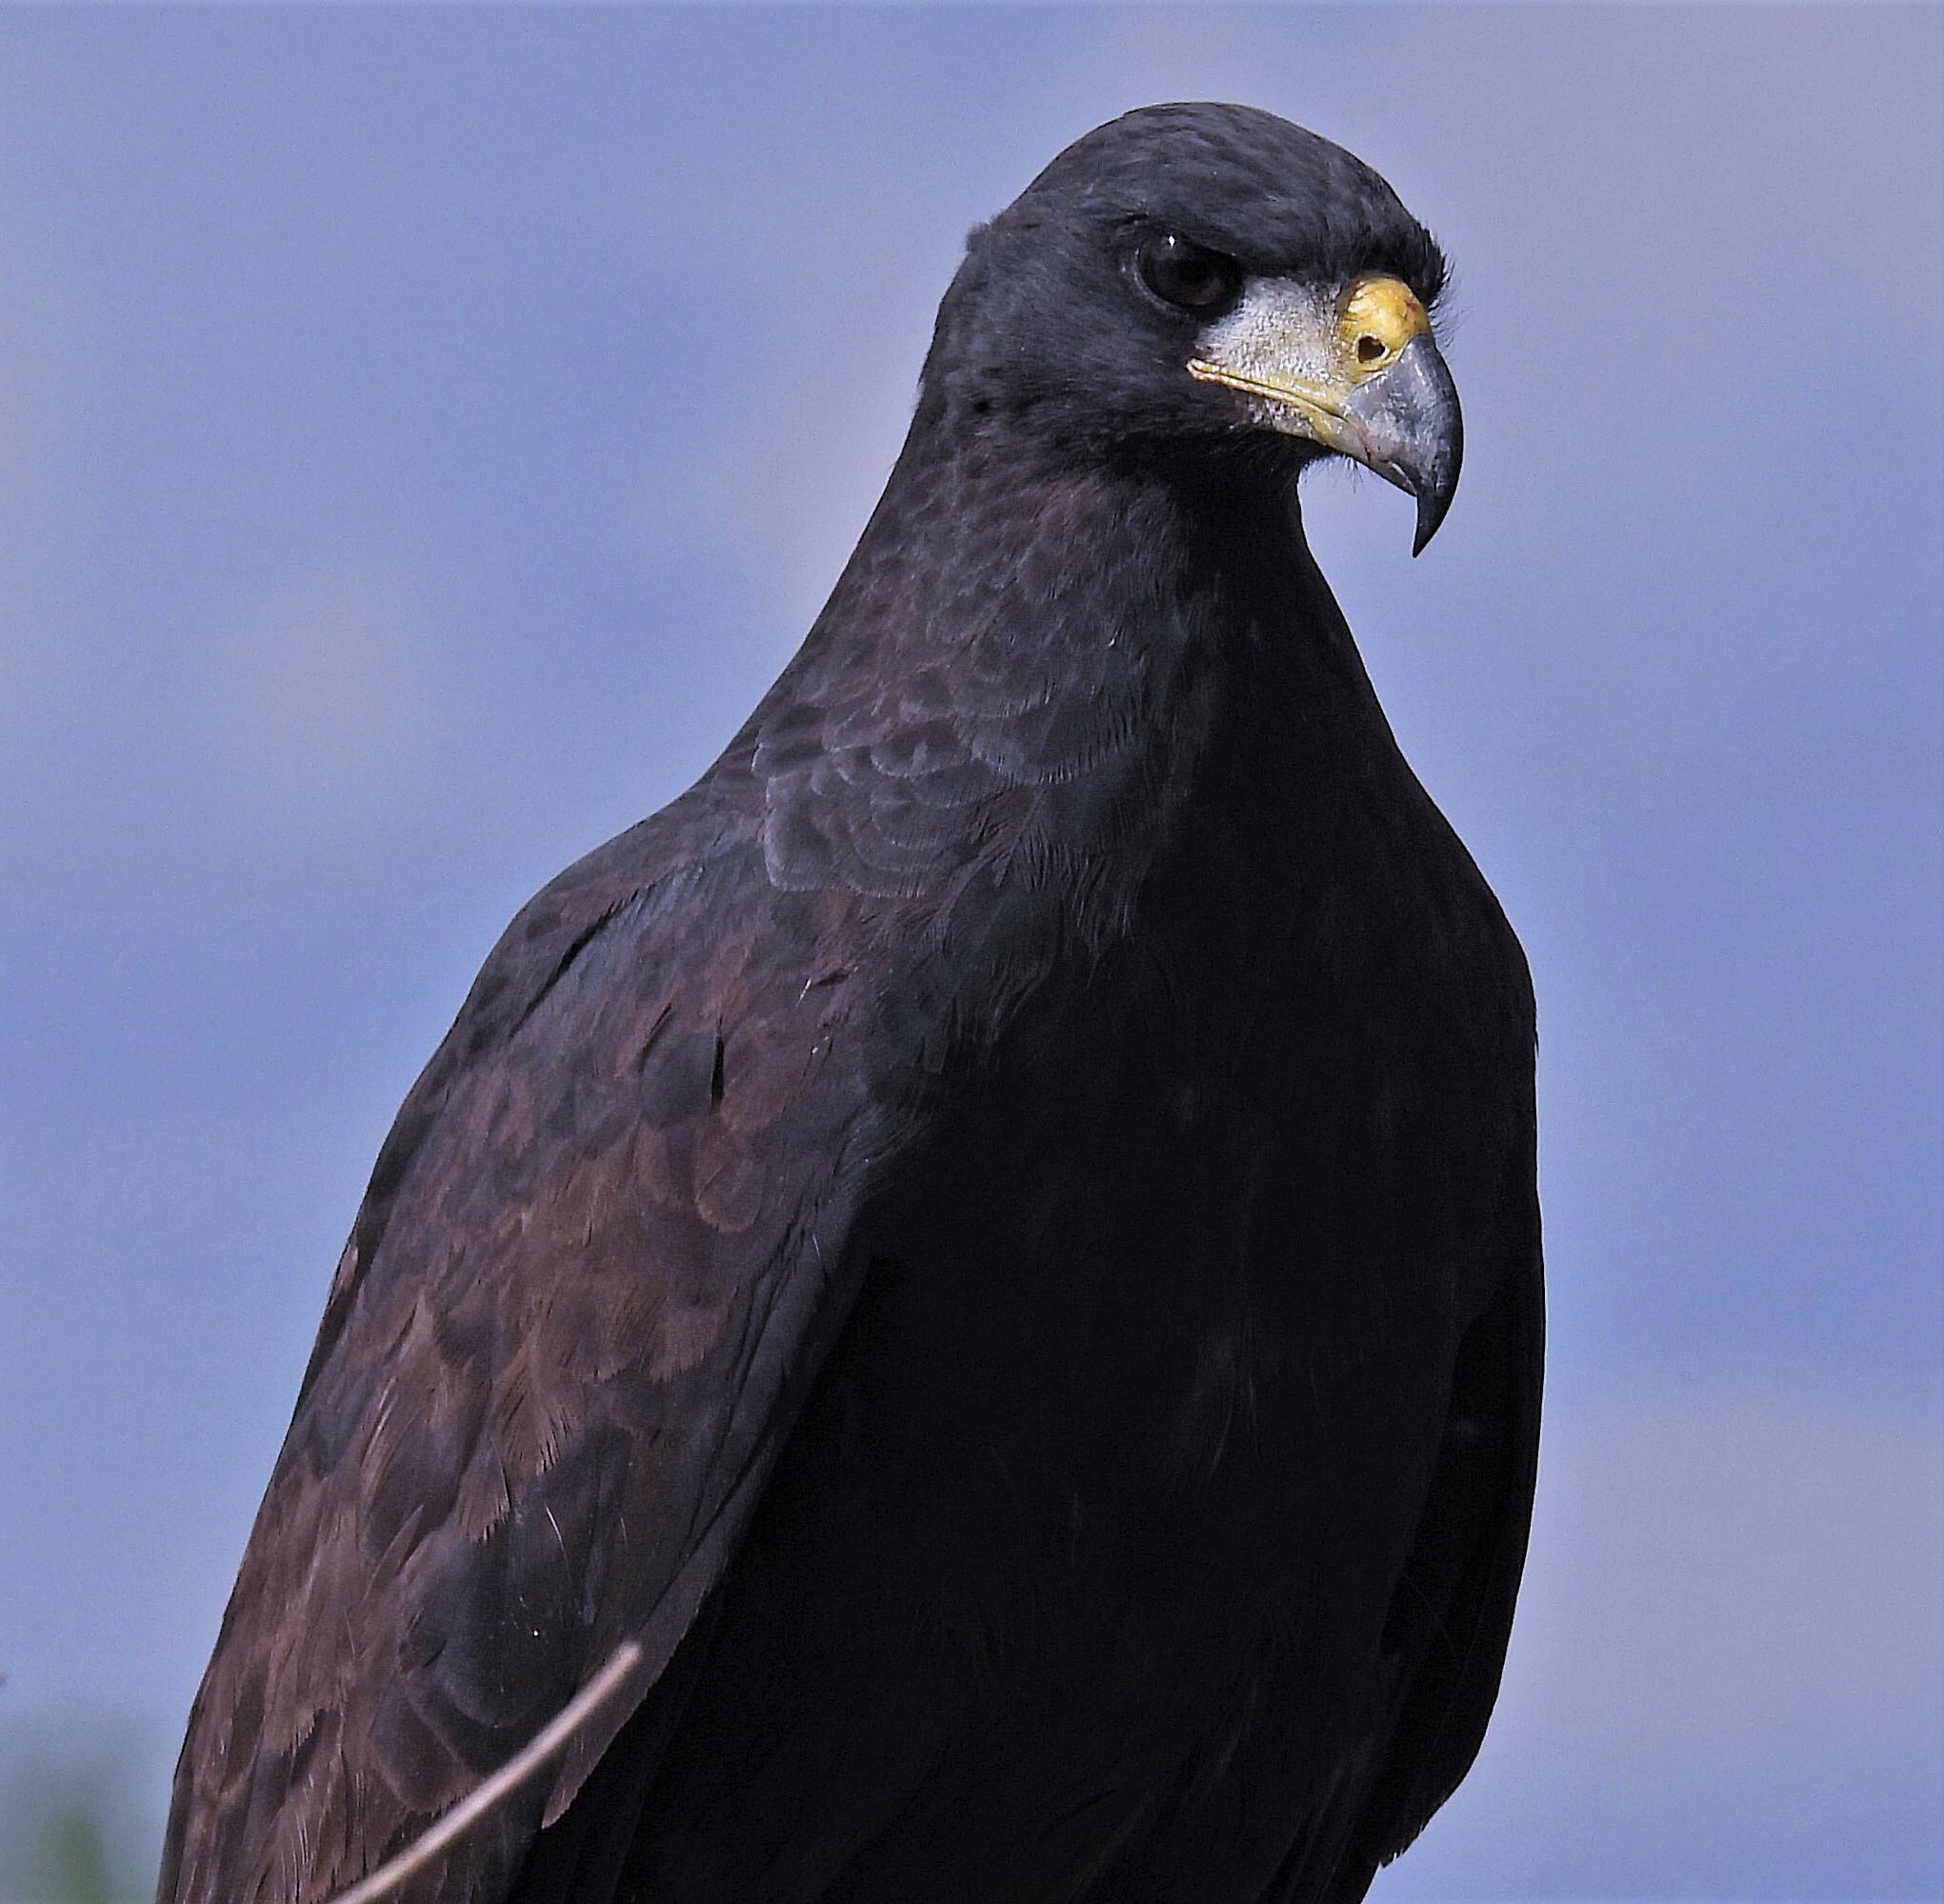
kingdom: Animalia
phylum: Chordata
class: Aves
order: Accipitriformes
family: Accipitridae
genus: Buteogallus
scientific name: Buteogallus urubitinga
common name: Great black hawk
